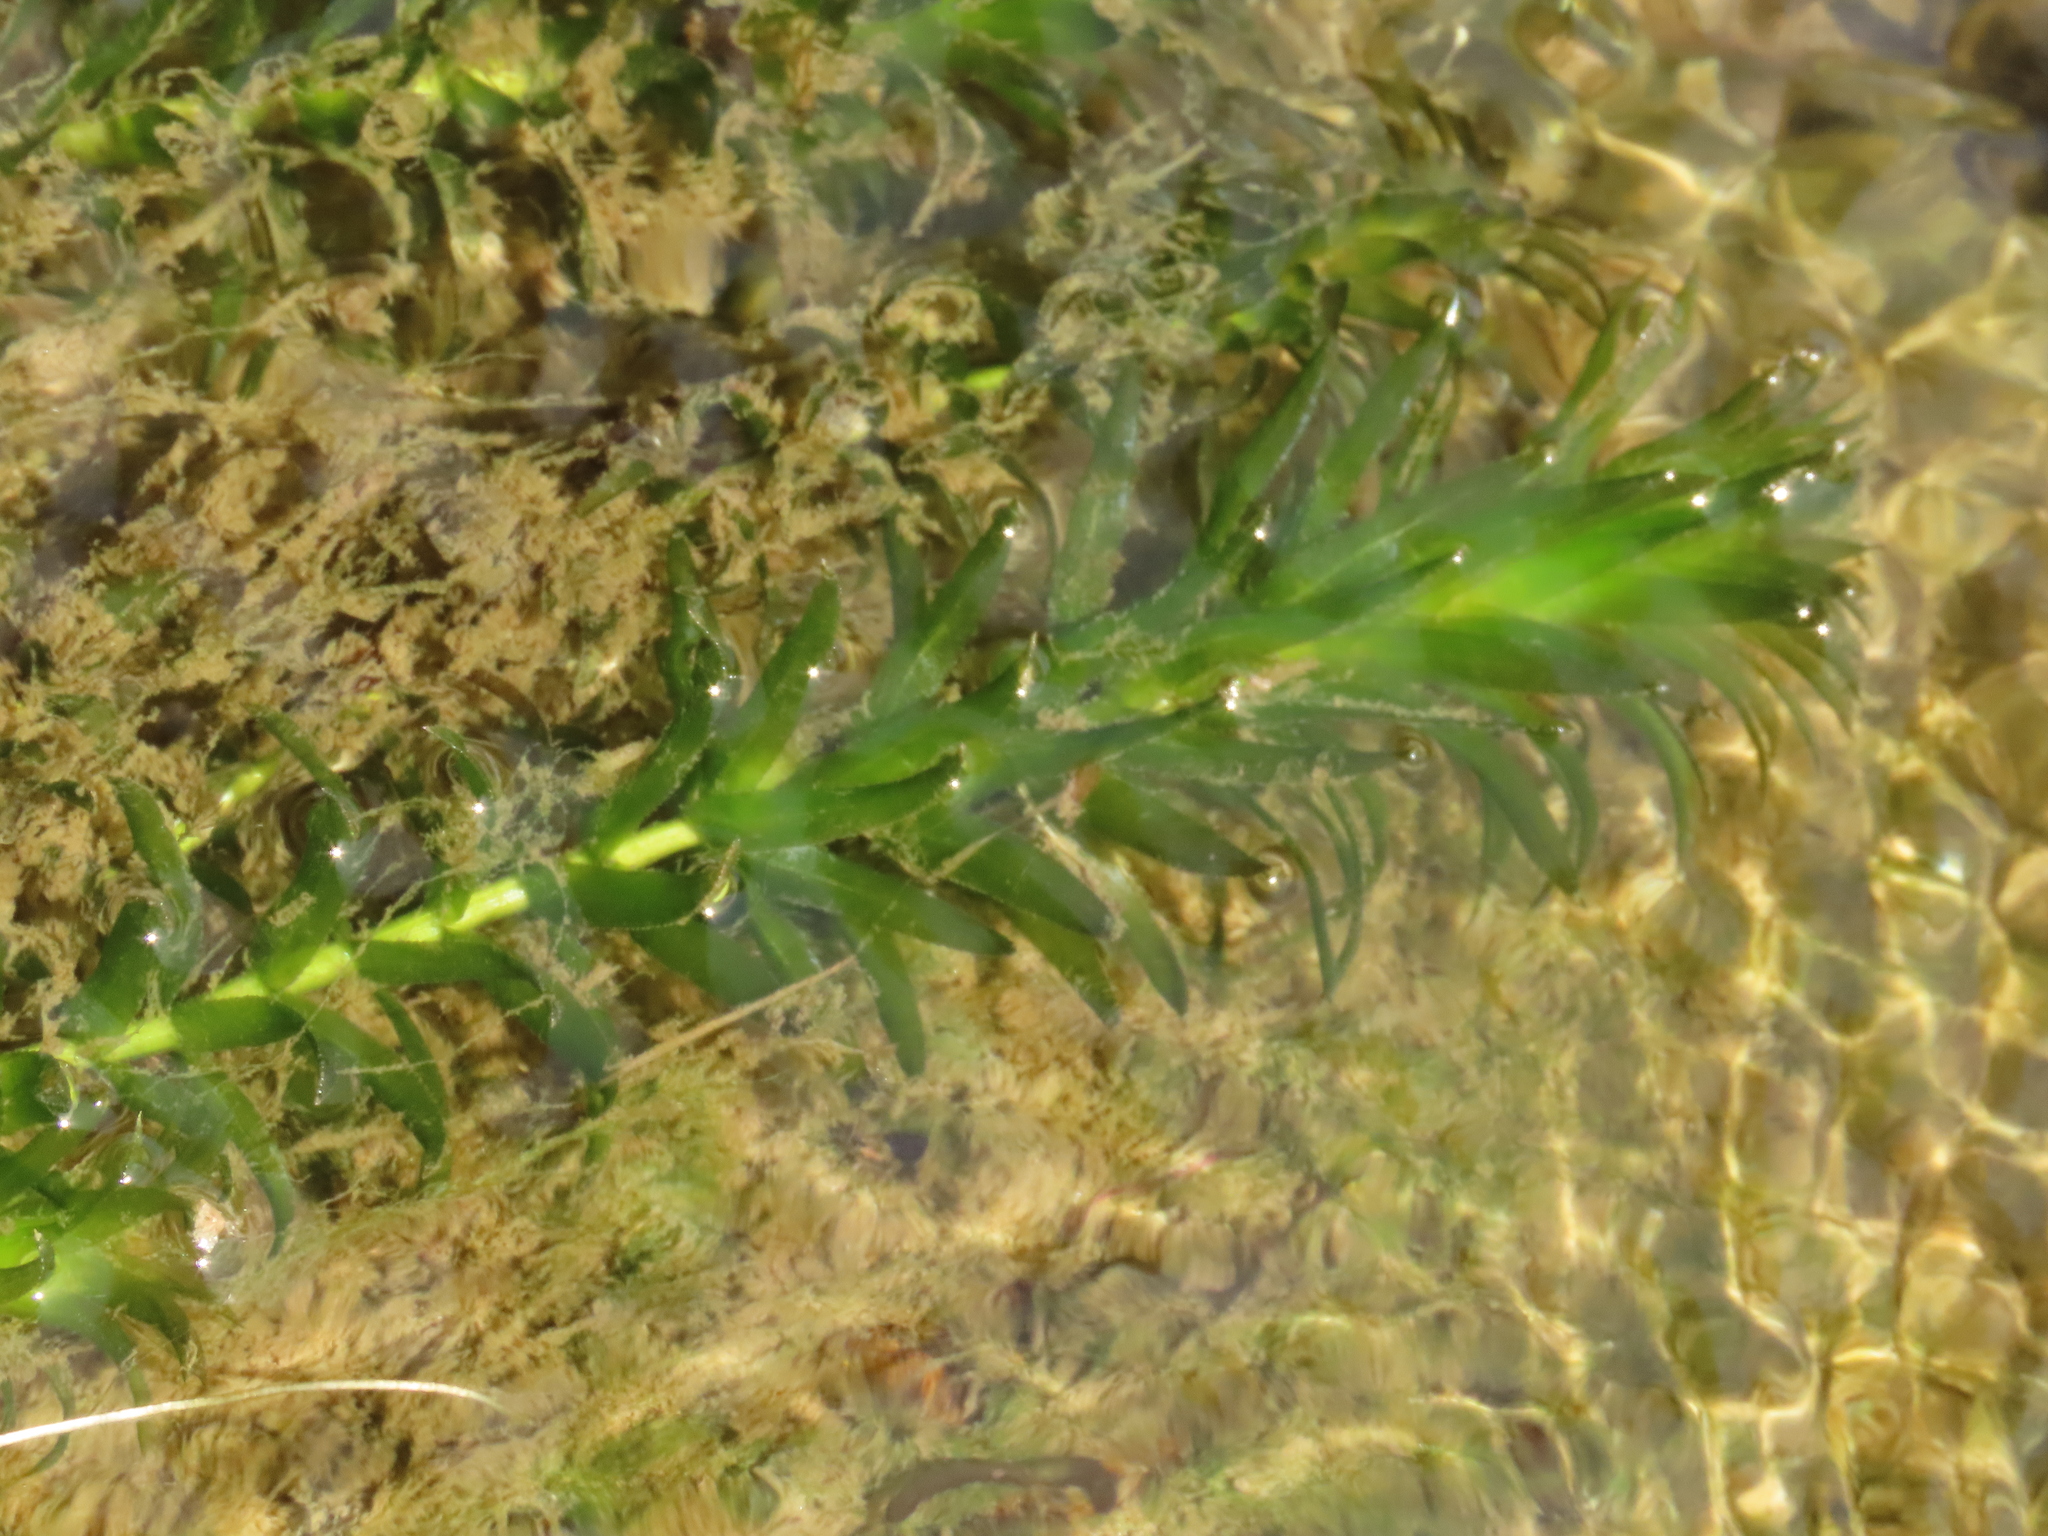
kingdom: Plantae
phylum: Tracheophyta
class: Liliopsida
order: Alismatales
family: Hydrocharitaceae
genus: Hydrilla
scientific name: Hydrilla verticillata
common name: Florida-elodea
